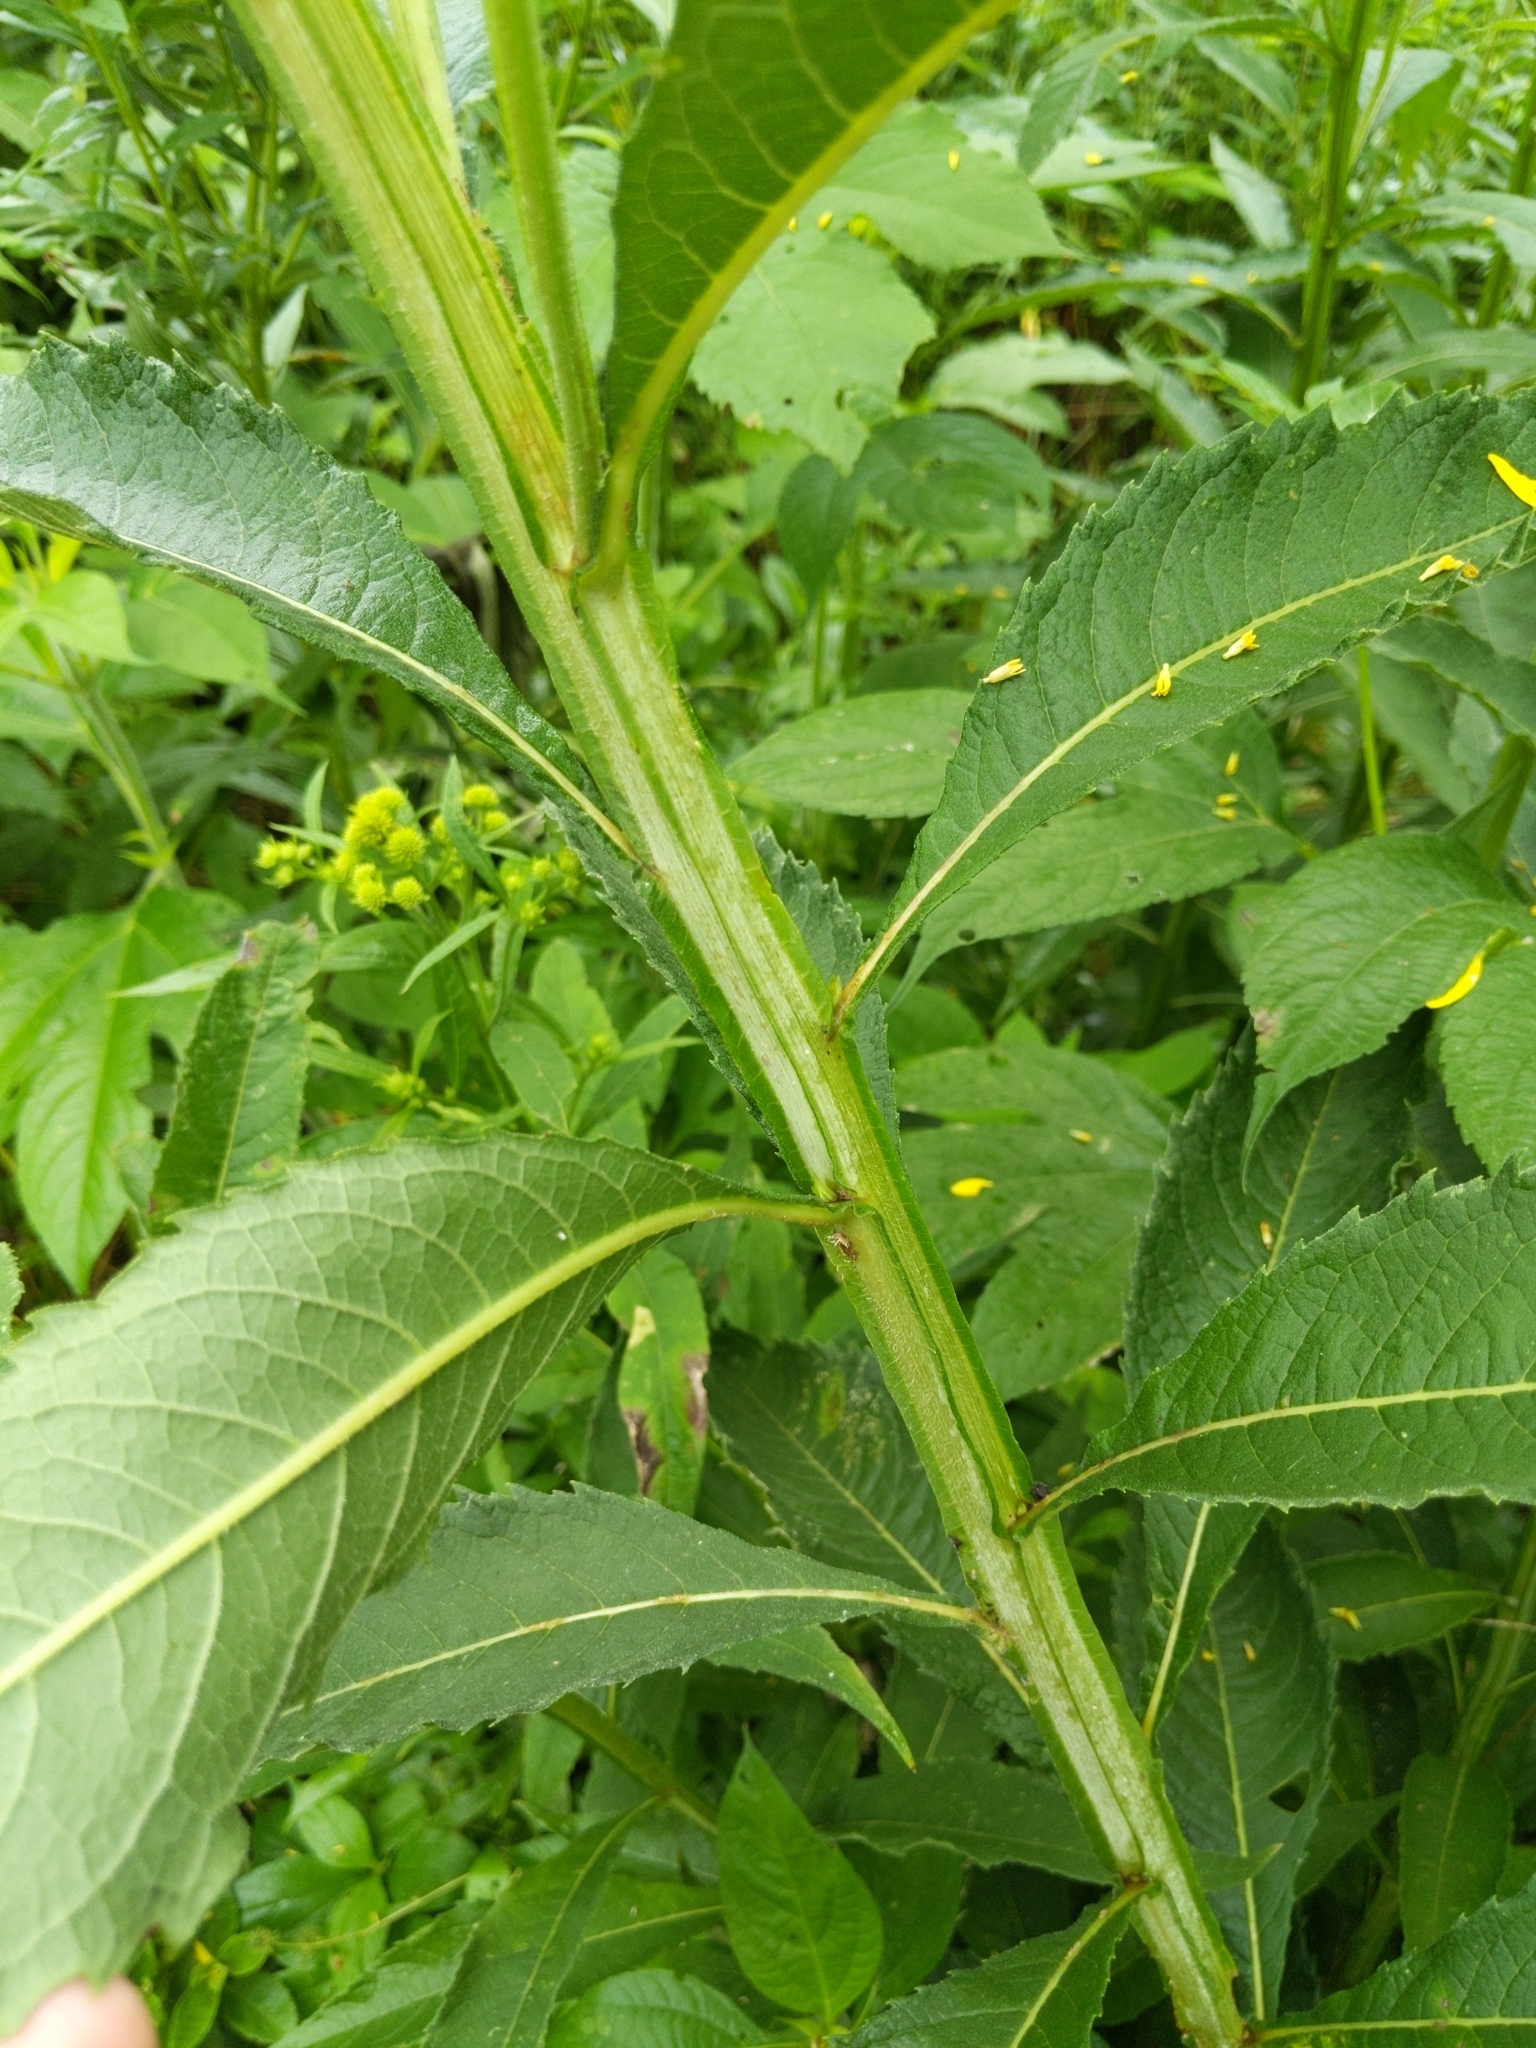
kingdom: Plantae
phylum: Tracheophyta
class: Magnoliopsida
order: Asterales
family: Asteraceae
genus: Verbesina
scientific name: Verbesina alternifolia
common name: Wingstem
